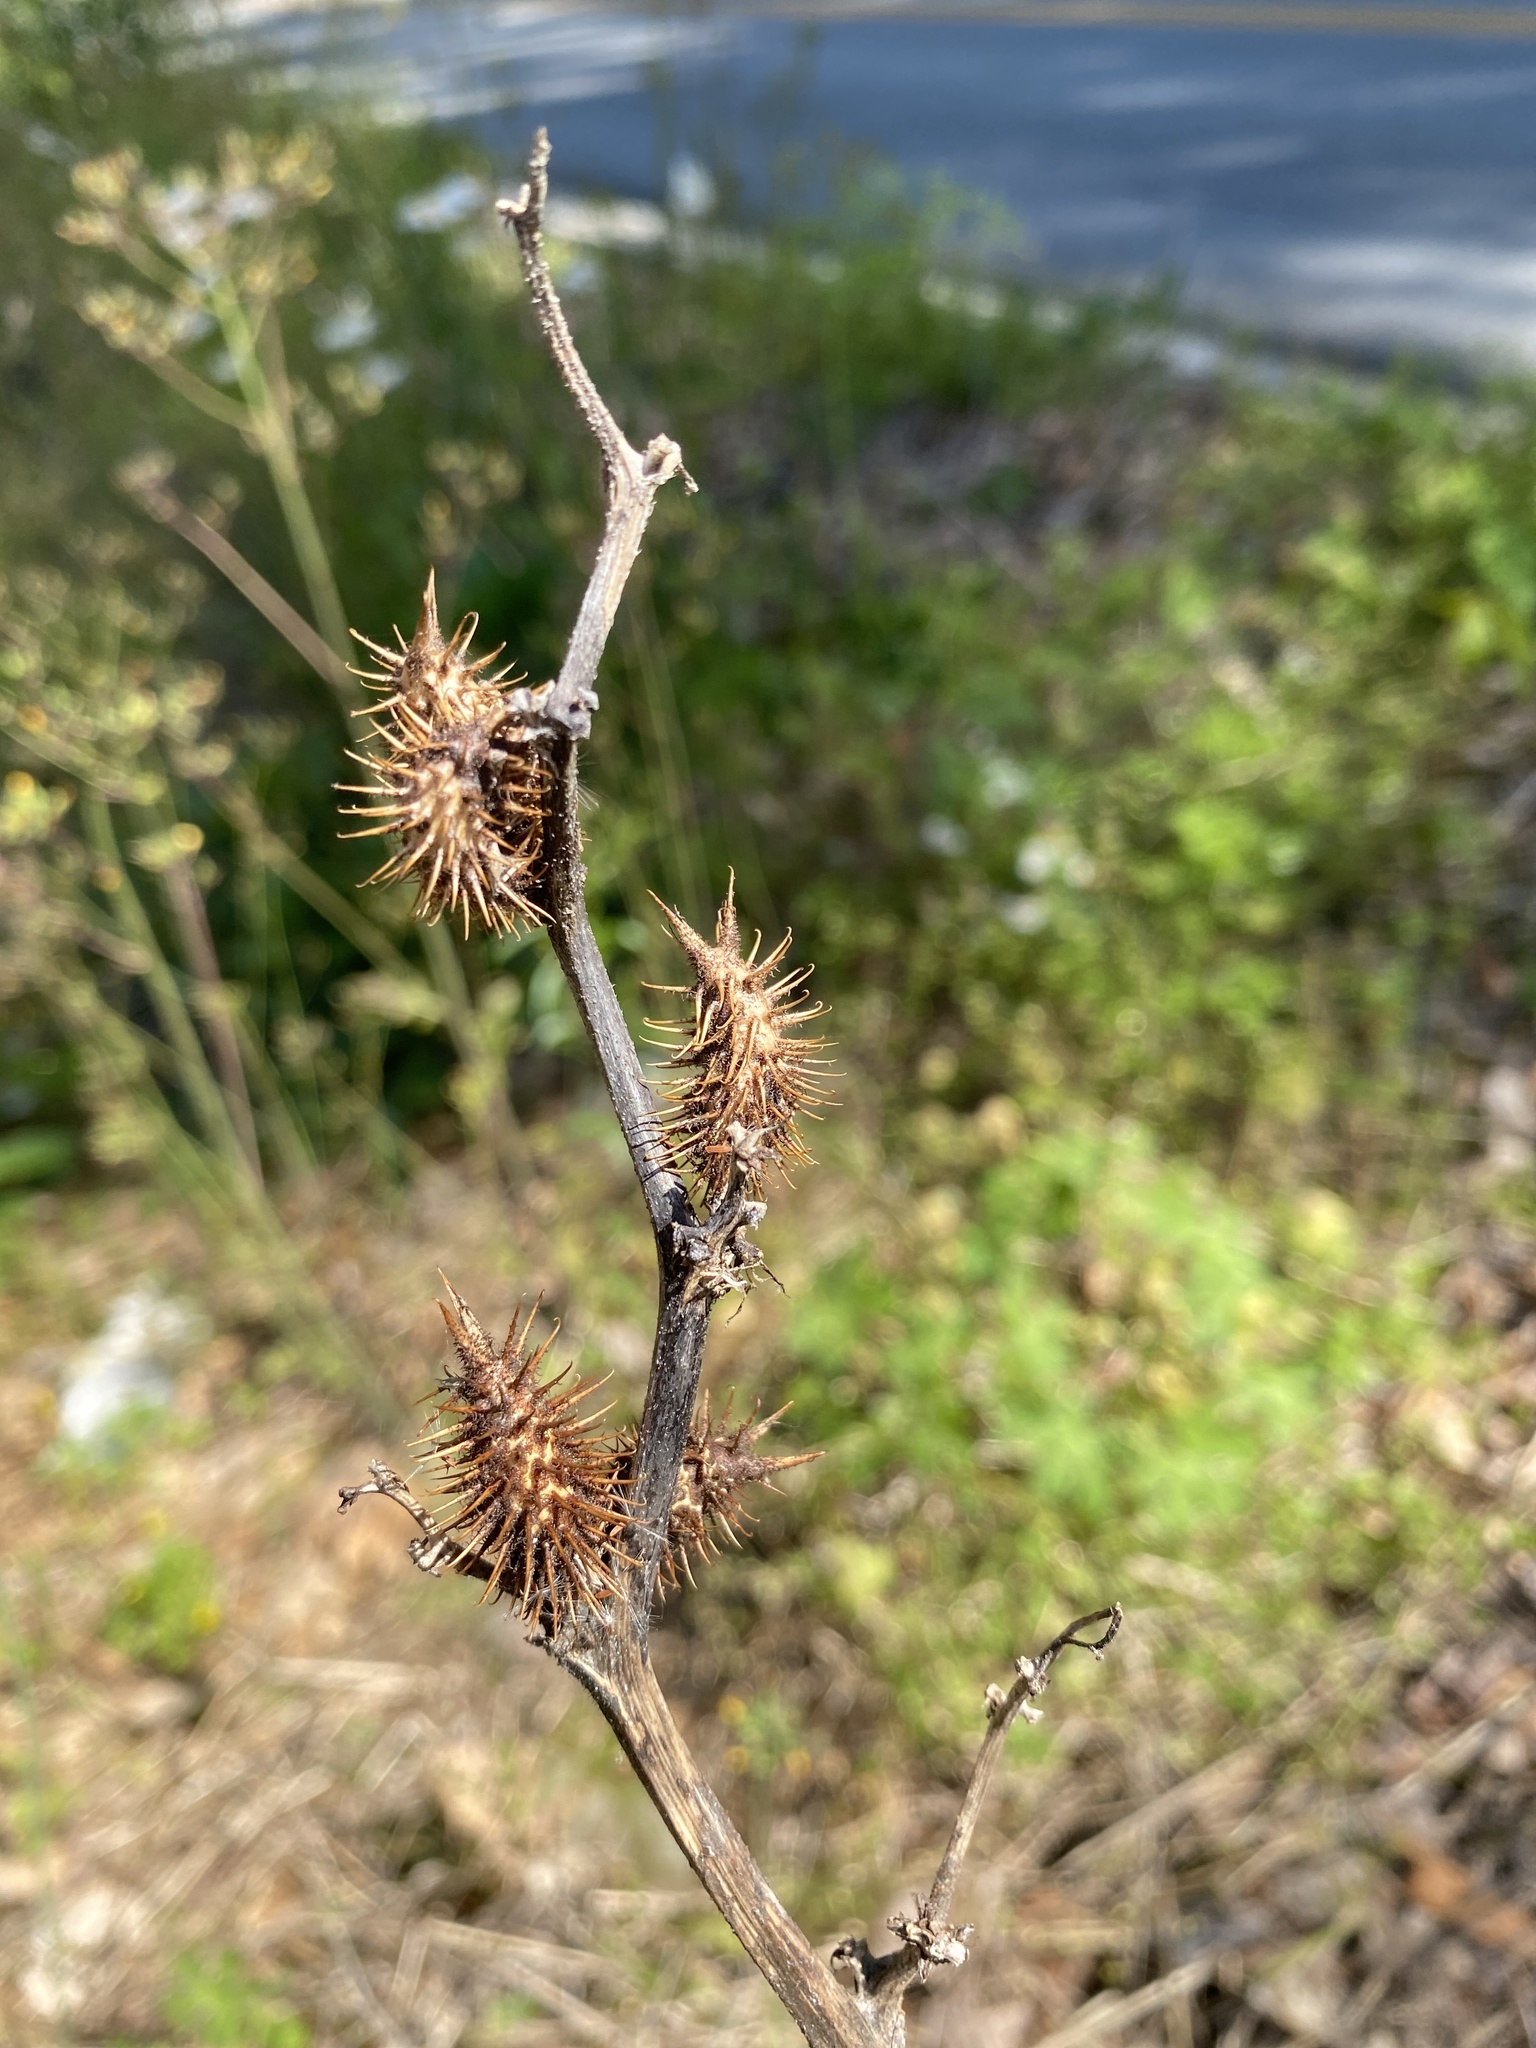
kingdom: Plantae
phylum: Tracheophyta
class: Magnoliopsida
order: Asterales
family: Asteraceae
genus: Xanthium
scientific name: Xanthium strumarium
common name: Rough cocklebur
